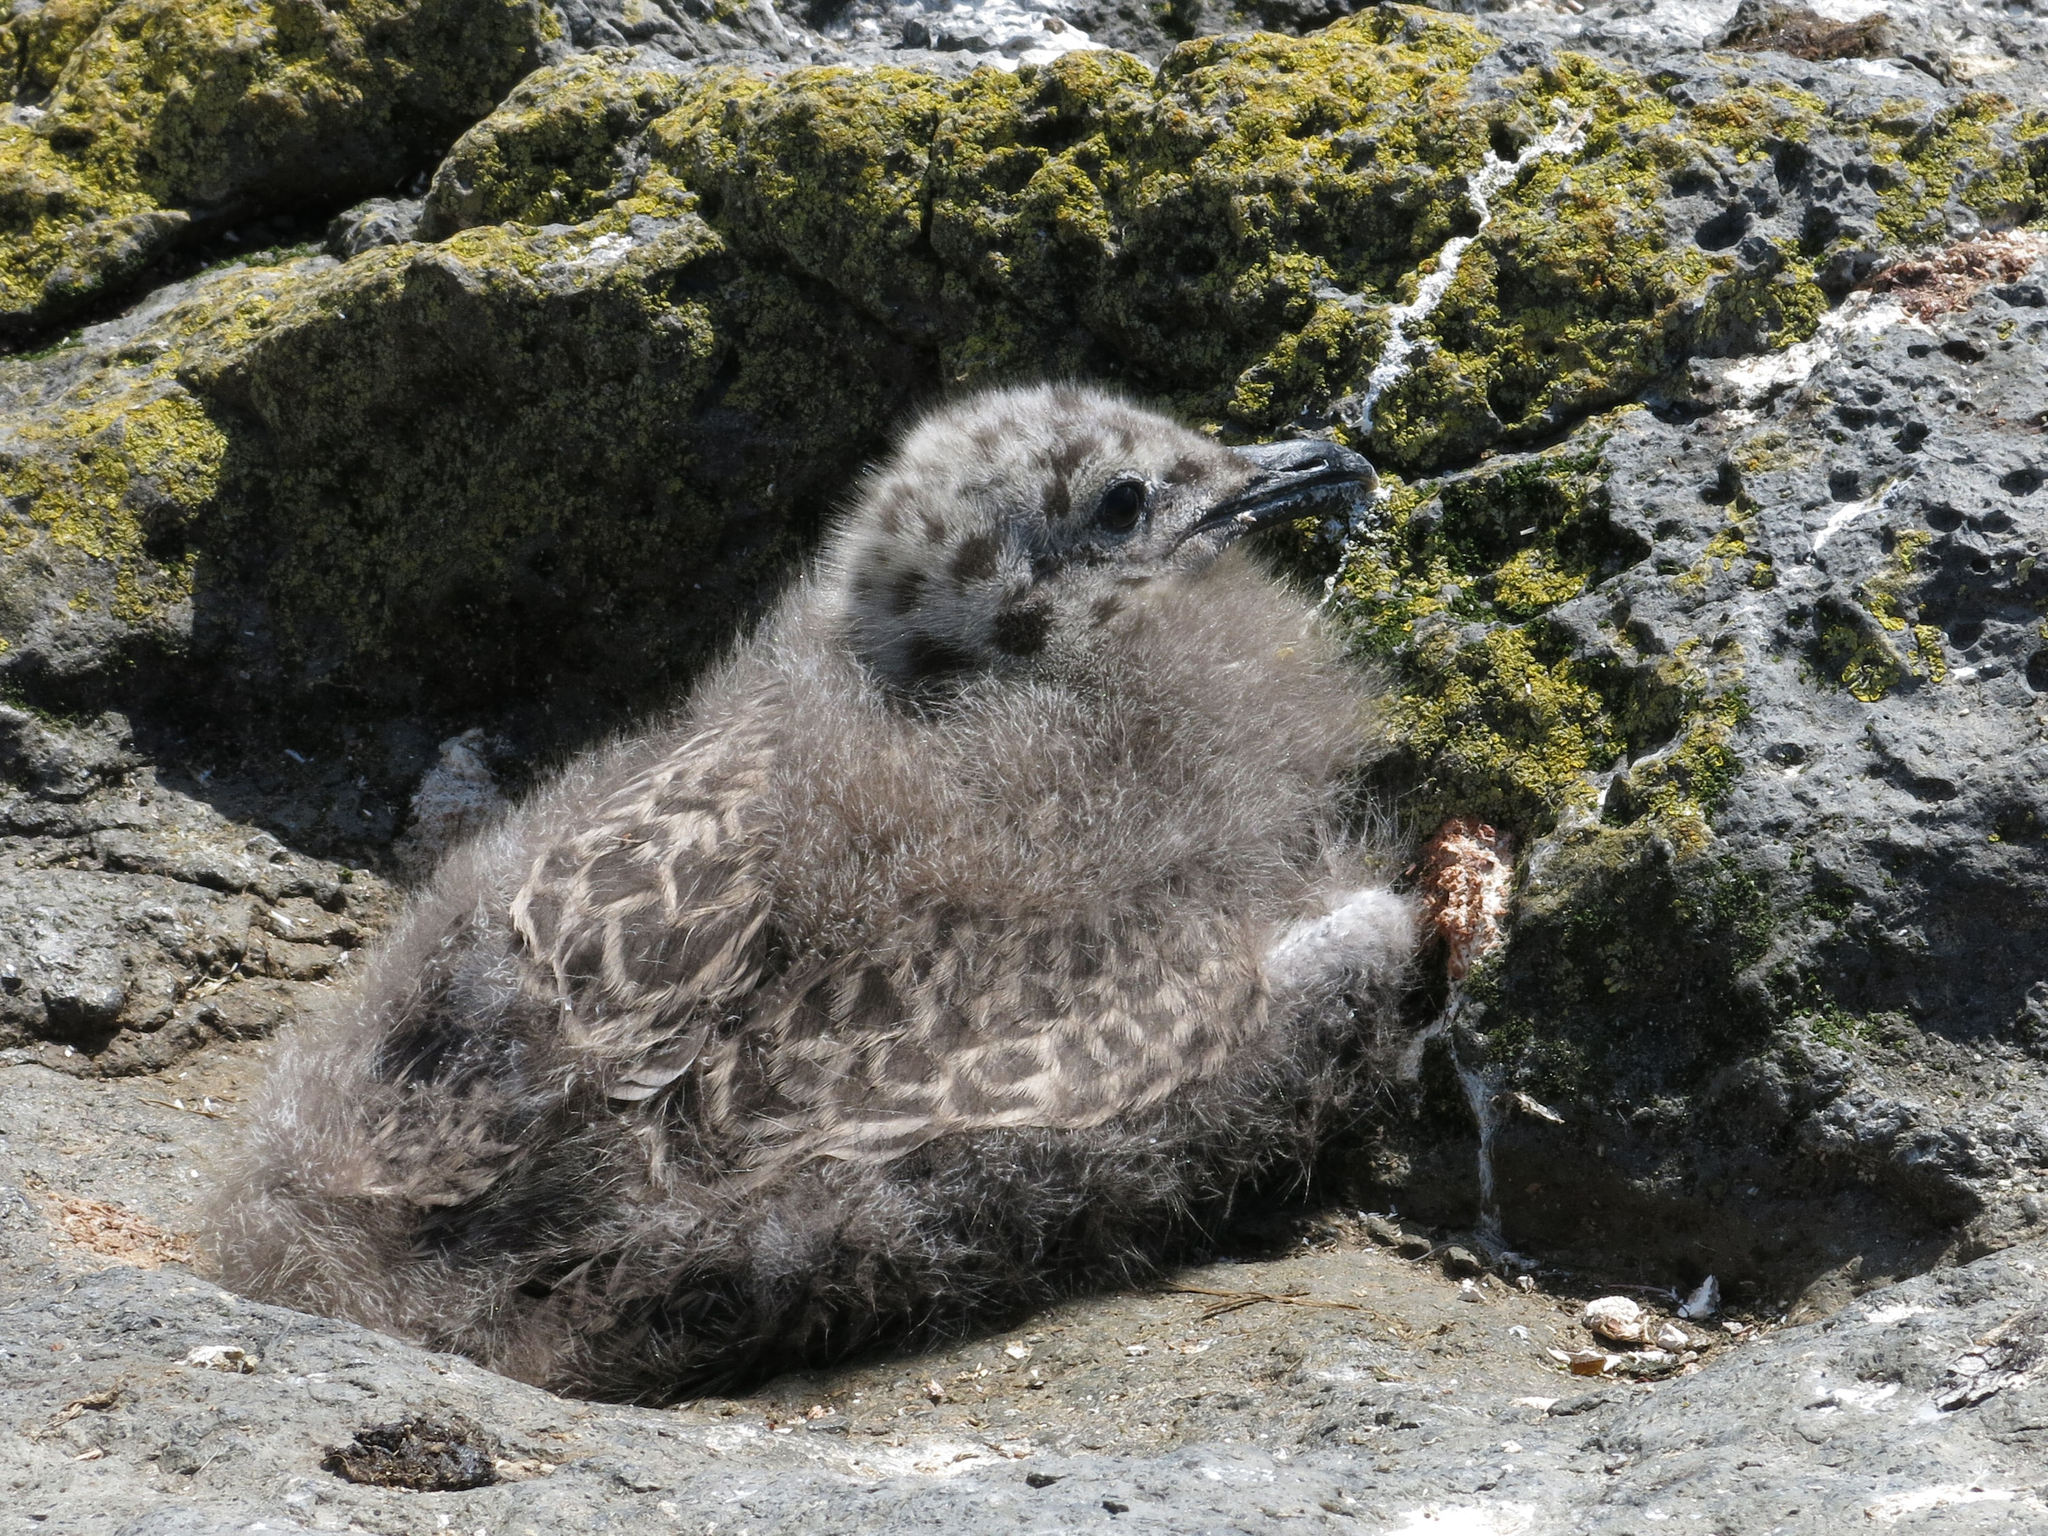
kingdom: Animalia
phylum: Chordata
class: Aves
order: Charadriiformes
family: Laridae
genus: Larus
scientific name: Larus dominicanus
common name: Kelp gull
